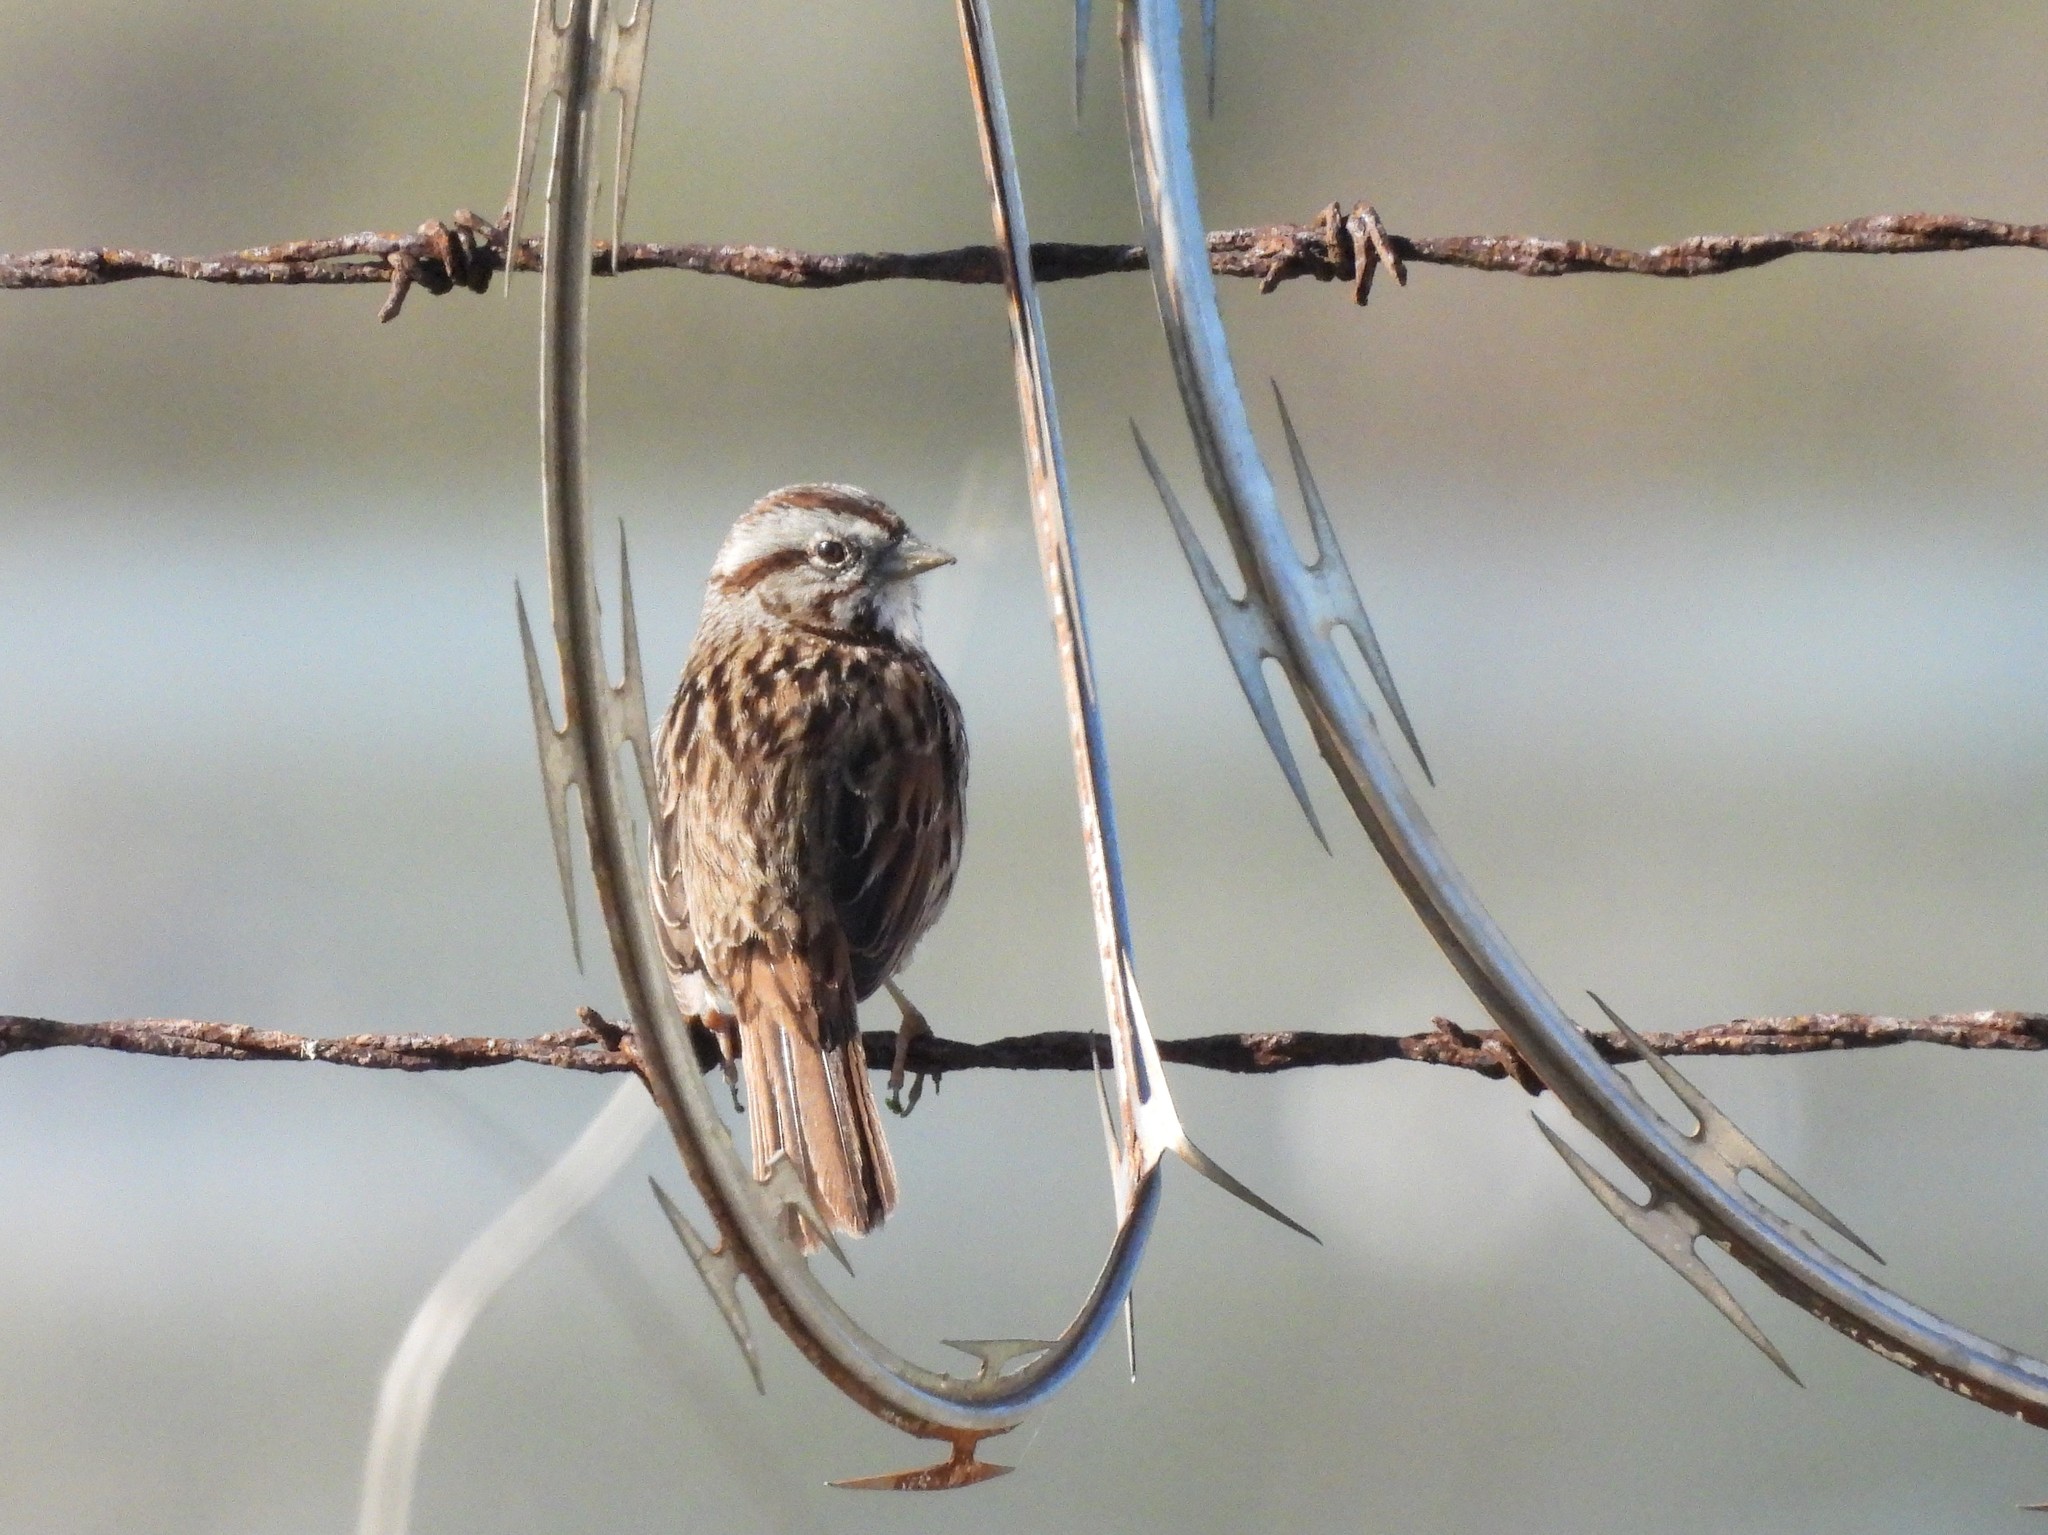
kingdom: Animalia
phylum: Chordata
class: Aves
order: Passeriformes
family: Passerellidae
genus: Melospiza
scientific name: Melospiza melodia
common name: Song sparrow
